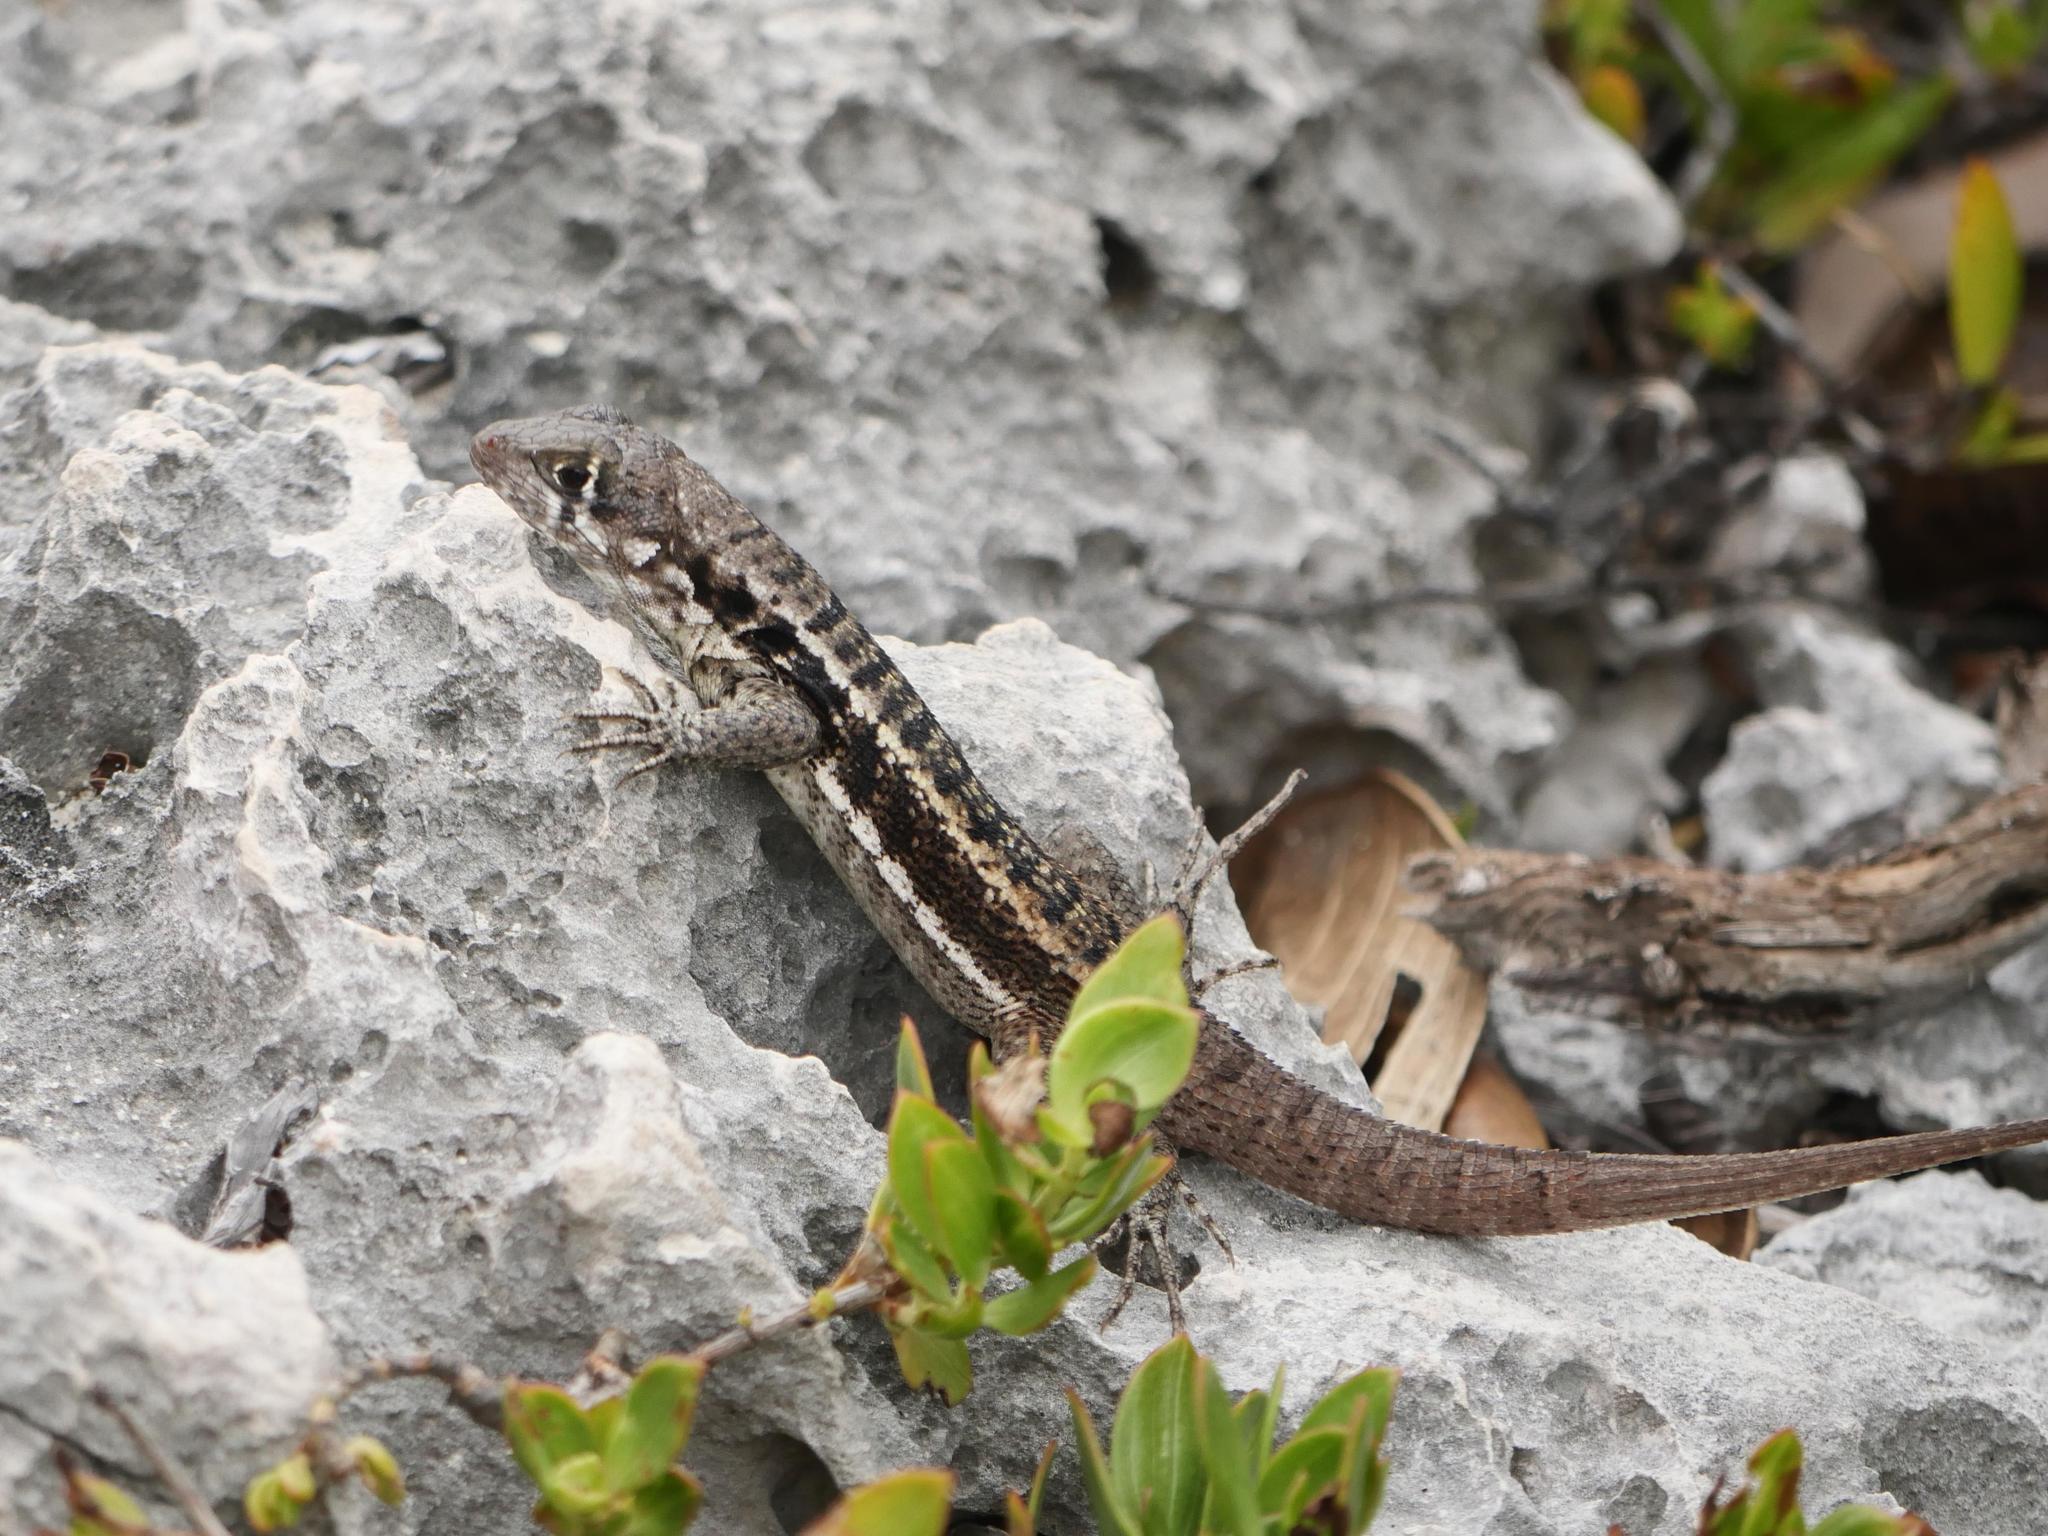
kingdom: Animalia
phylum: Chordata
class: Squamata
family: Leiocephalidae
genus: Leiocephalus
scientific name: Leiocephalus psammodromus
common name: Bastion cay curlytail lizard
